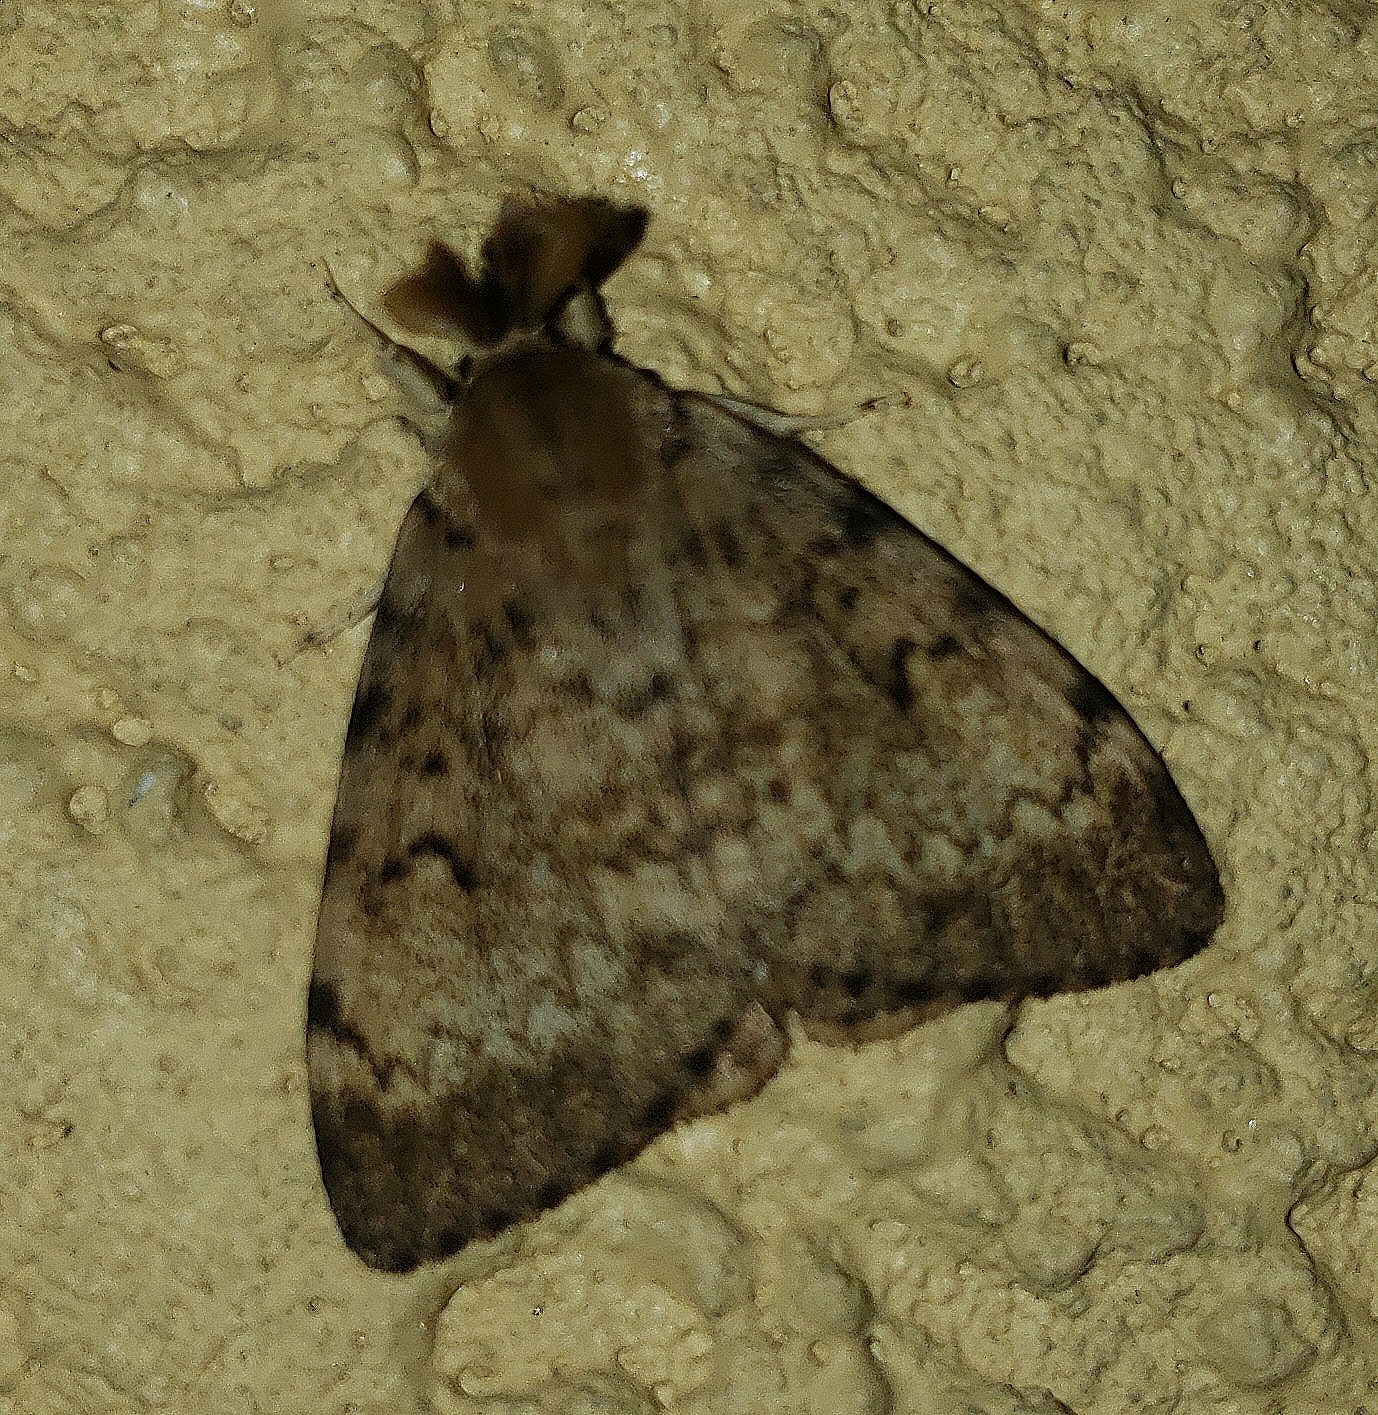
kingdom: Animalia
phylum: Arthropoda
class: Insecta
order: Lepidoptera
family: Erebidae
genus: Lymantria
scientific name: Lymantria dispar
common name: Gypsy moth
